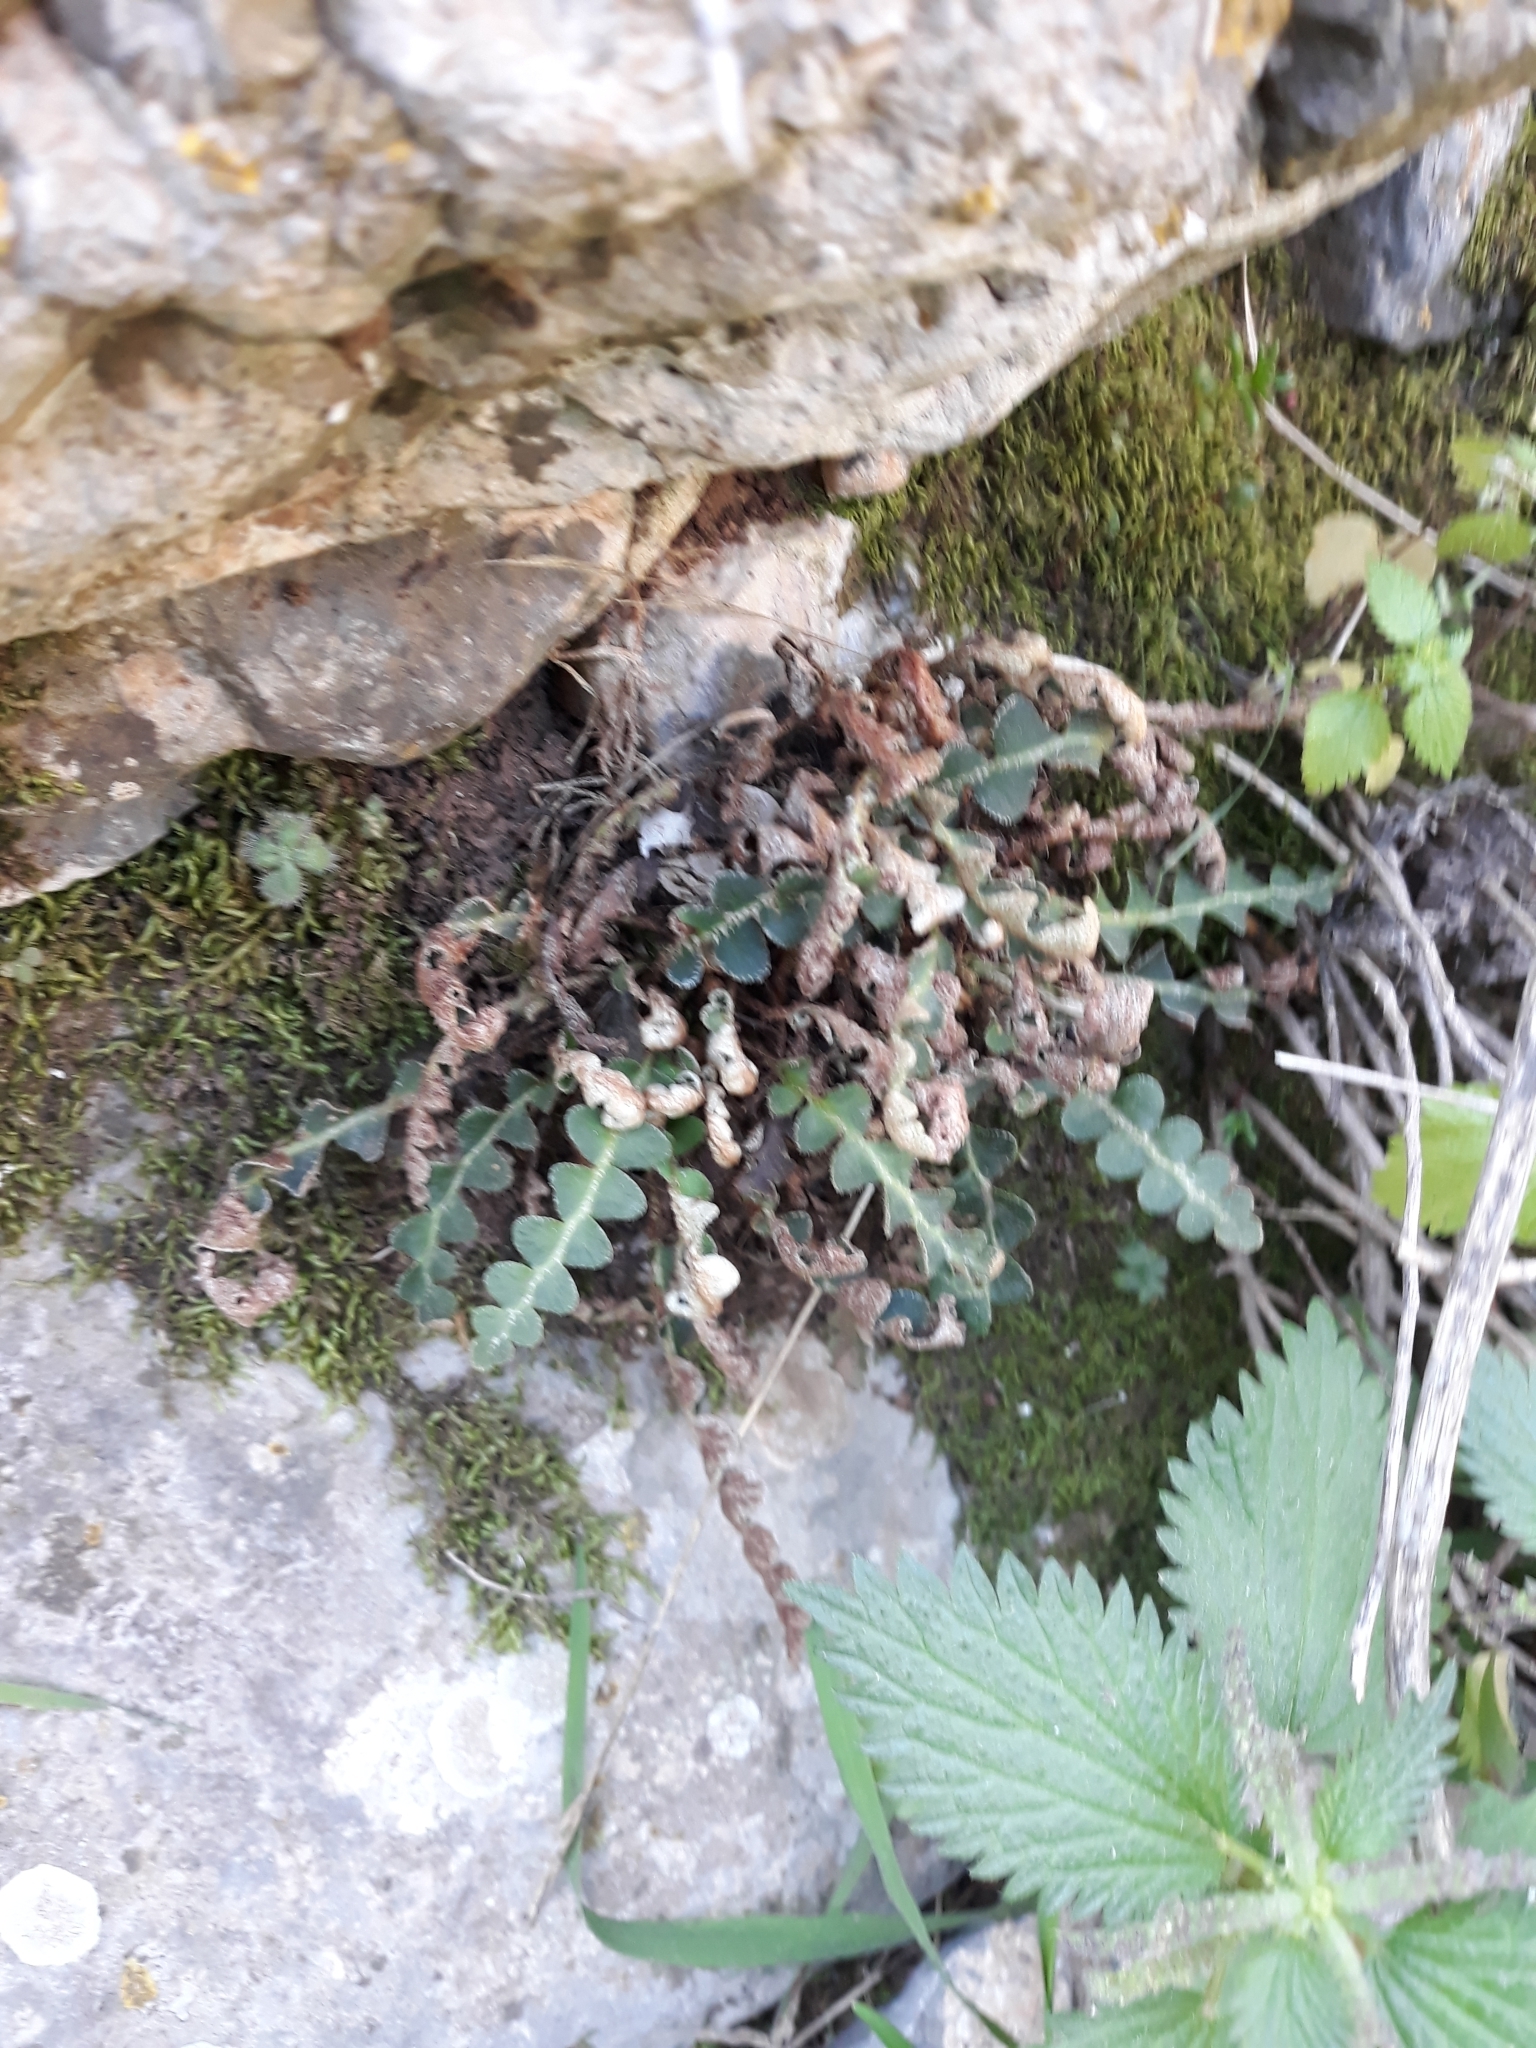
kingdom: Plantae
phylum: Tracheophyta
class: Polypodiopsida
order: Polypodiales
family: Aspleniaceae
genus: Asplenium
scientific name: Asplenium ceterach
